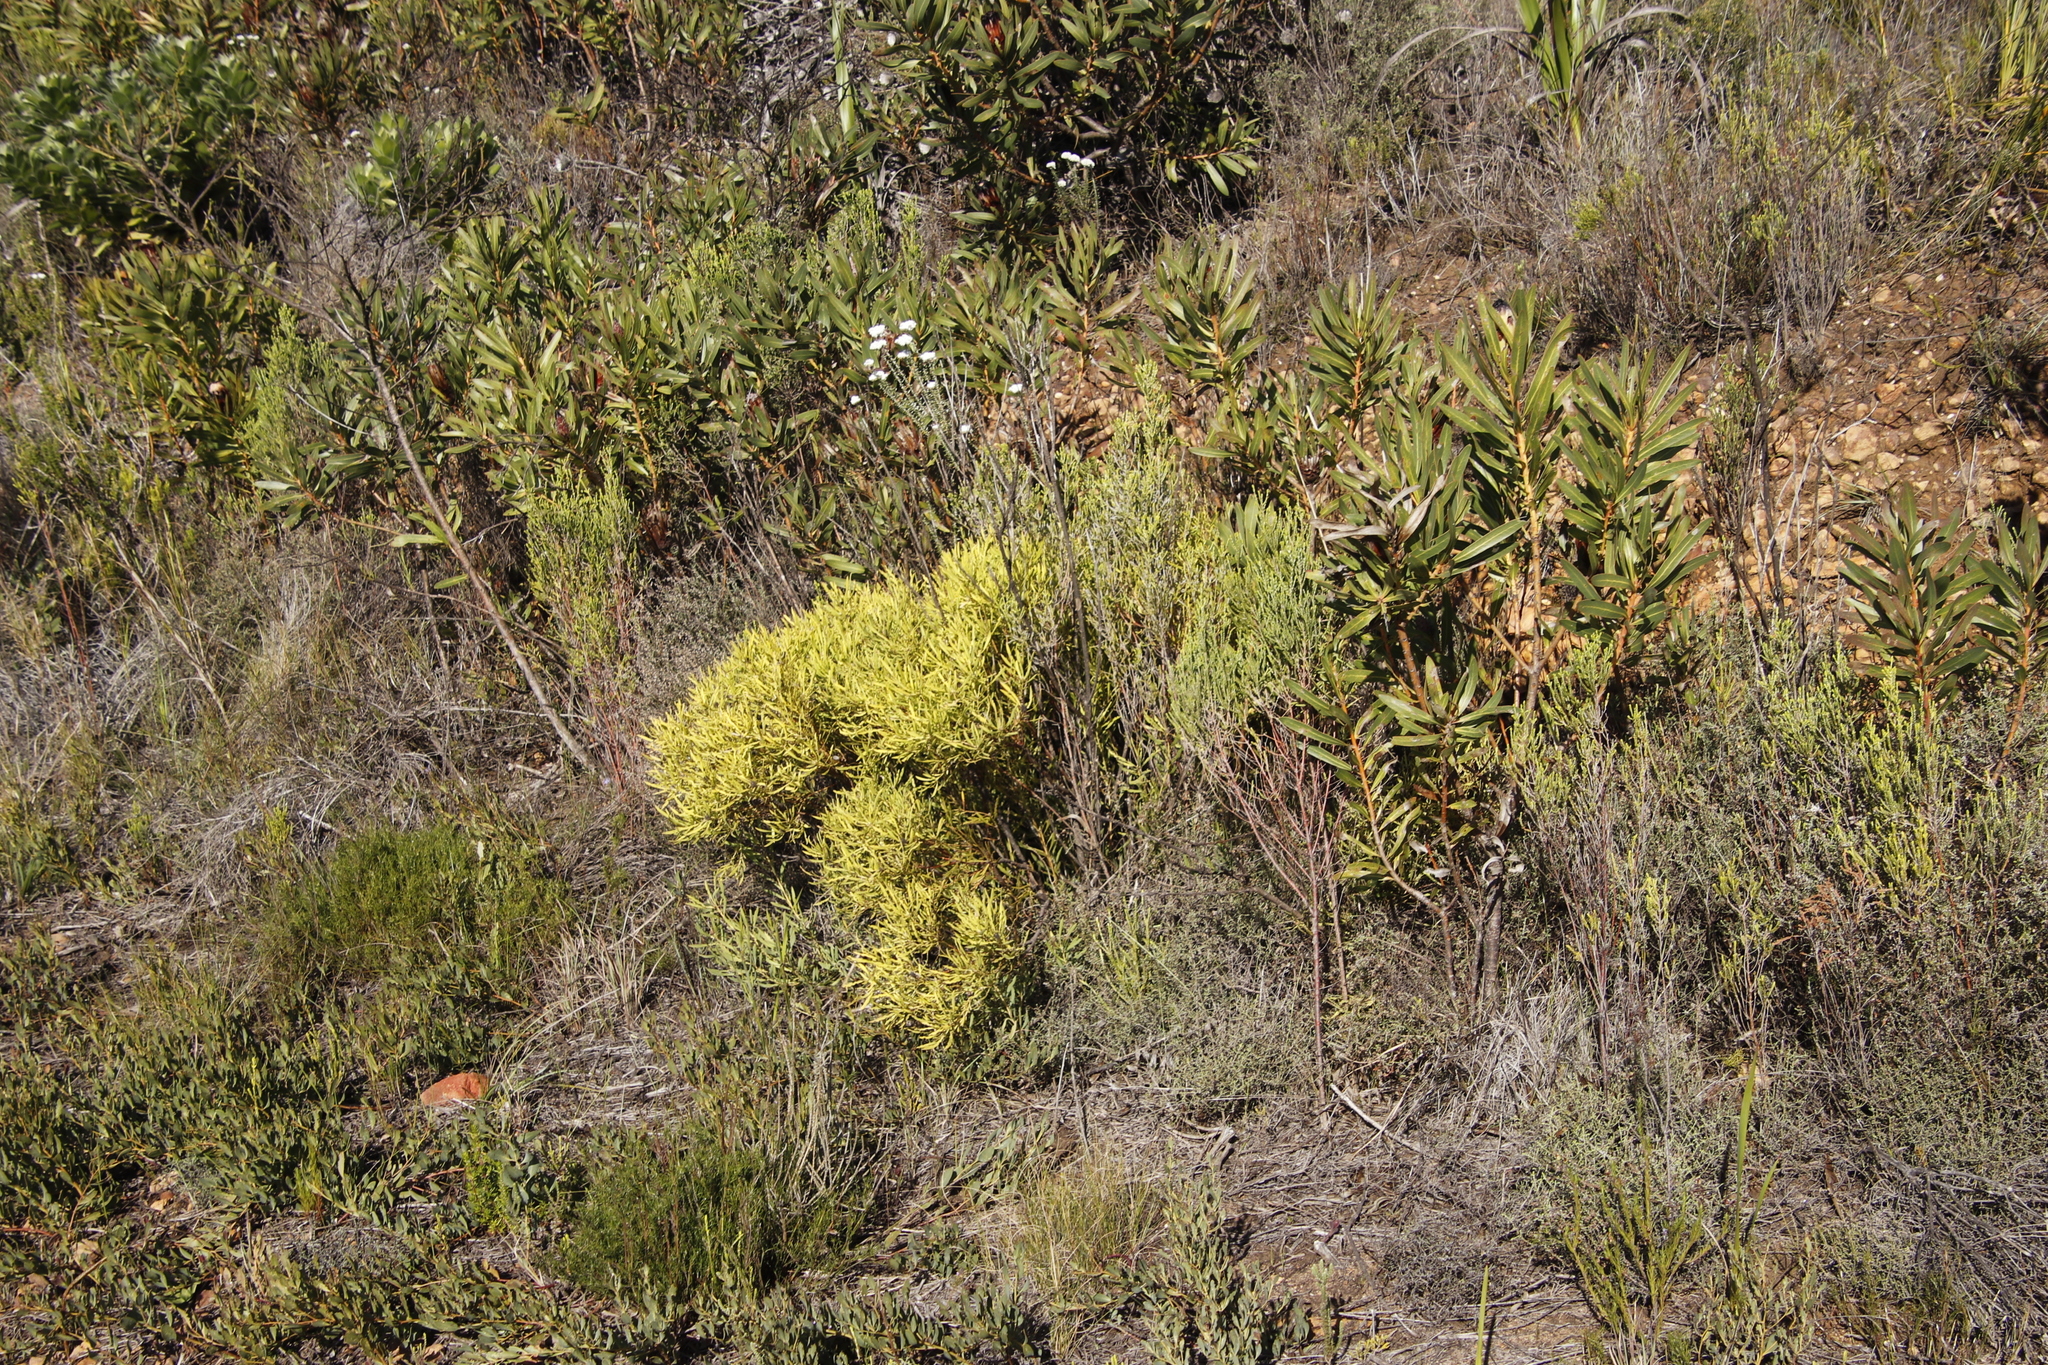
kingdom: Plantae
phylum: Tracheophyta
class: Magnoliopsida
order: Proteales
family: Proteaceae
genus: Leucadendron
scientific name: Leucadendron salignum
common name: Common sunshine conebush
